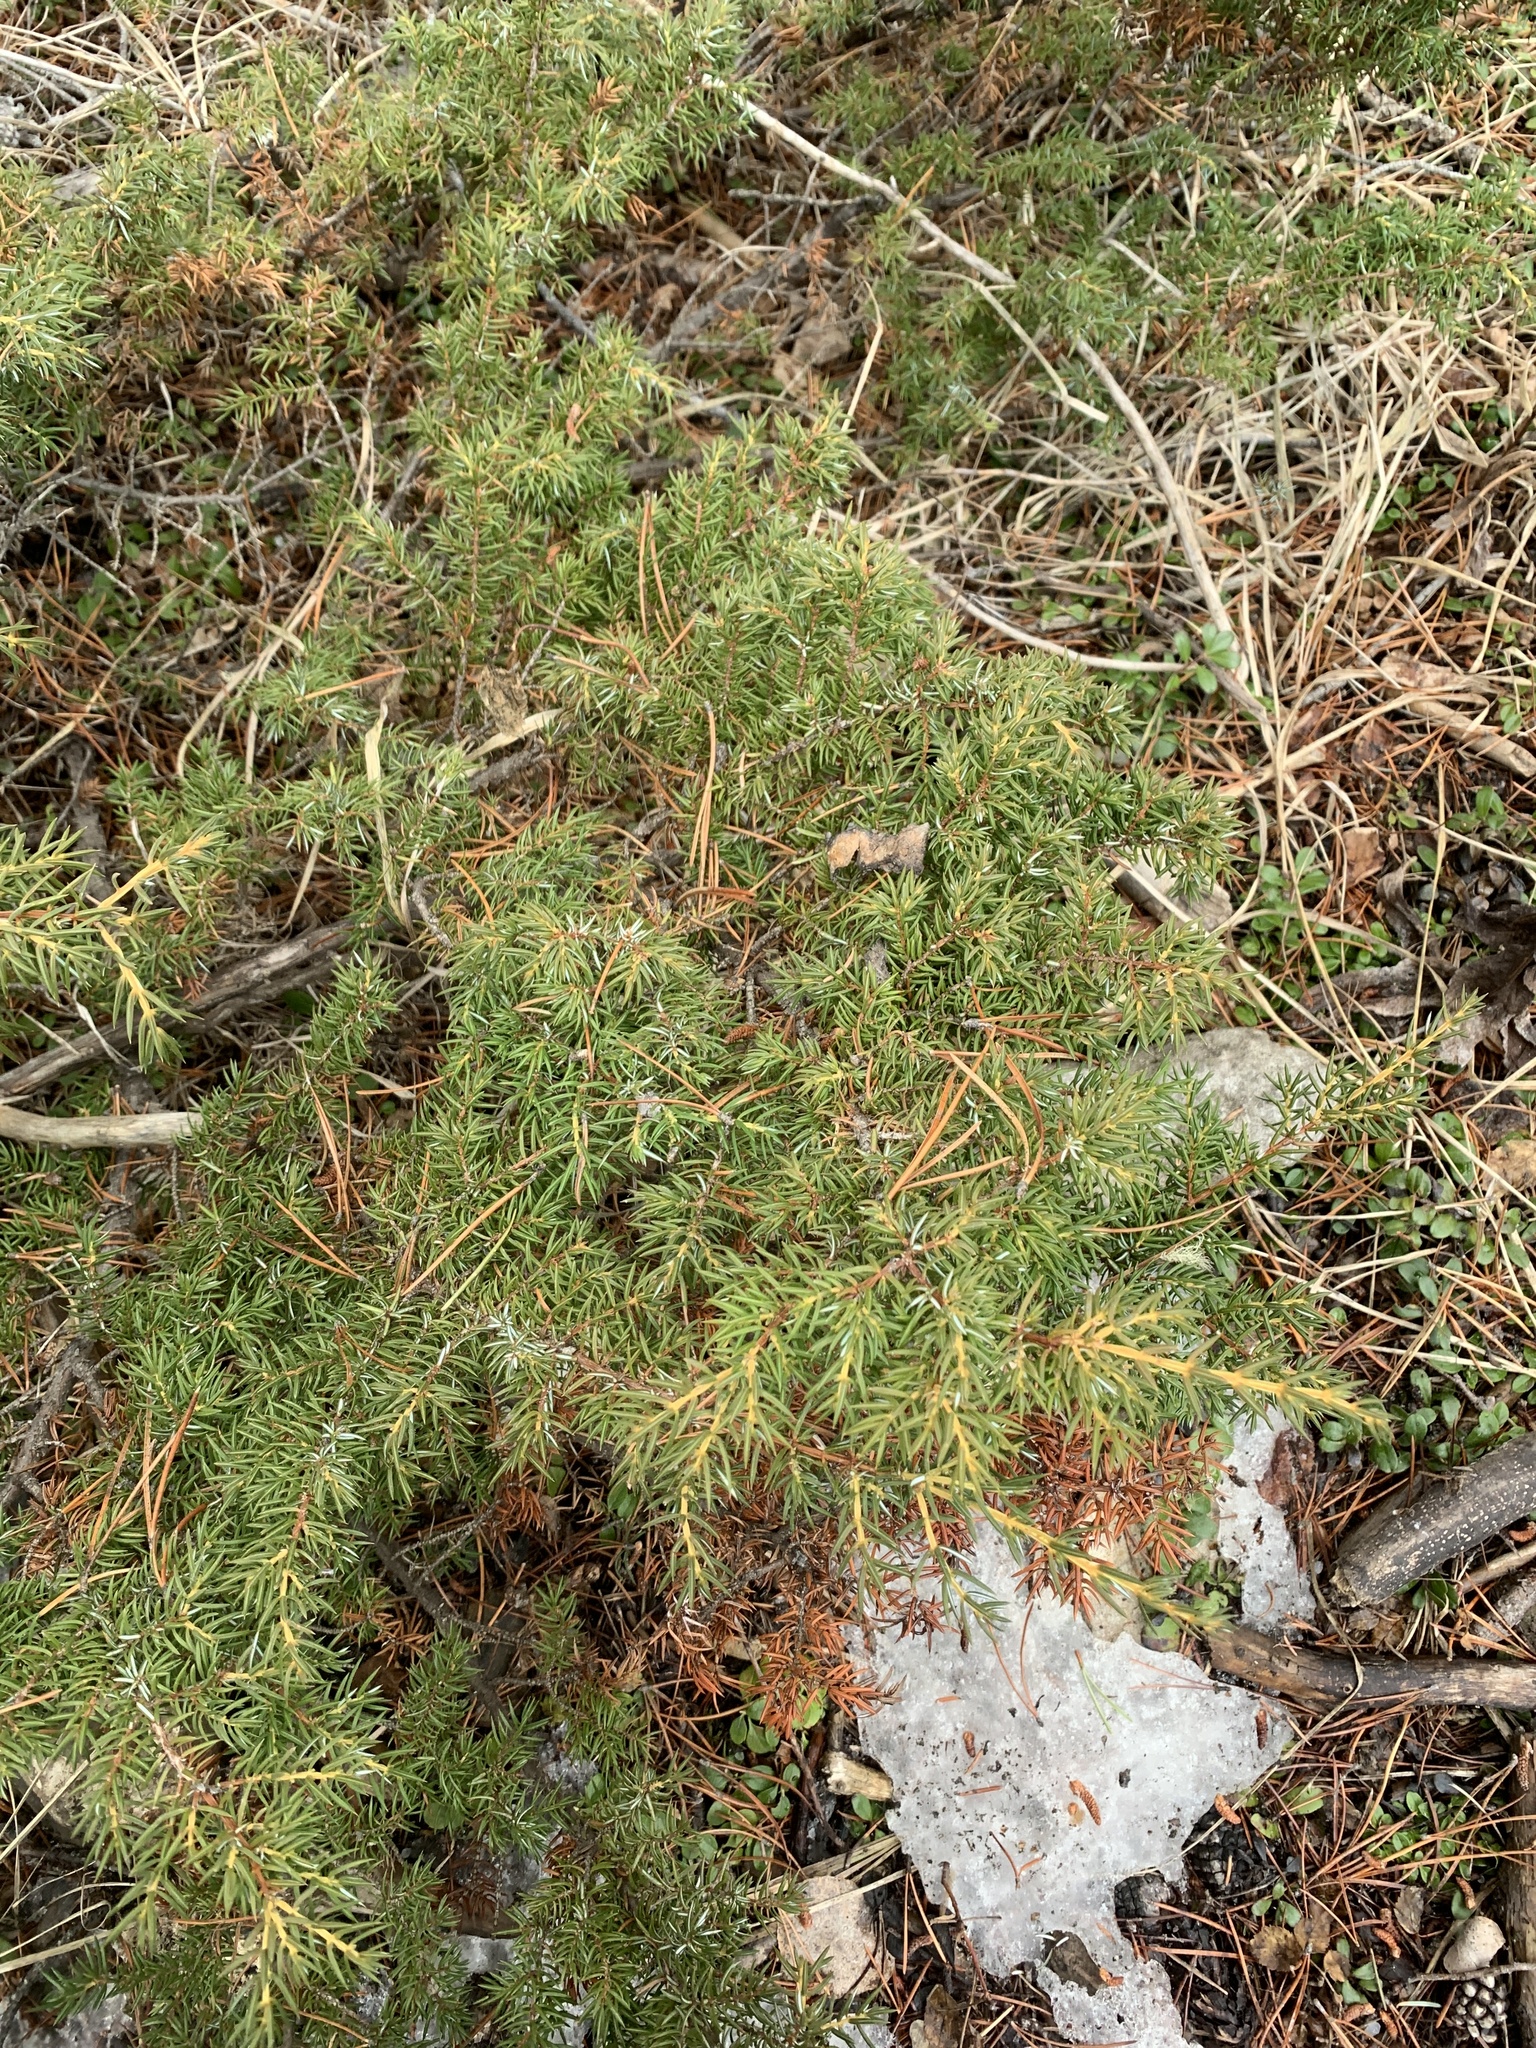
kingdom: Plantae
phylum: Tracheophyta
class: Pinopsida
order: Pinales
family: Cupressaceae
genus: Juniperus
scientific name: Juniperus communis
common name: Common juniper
